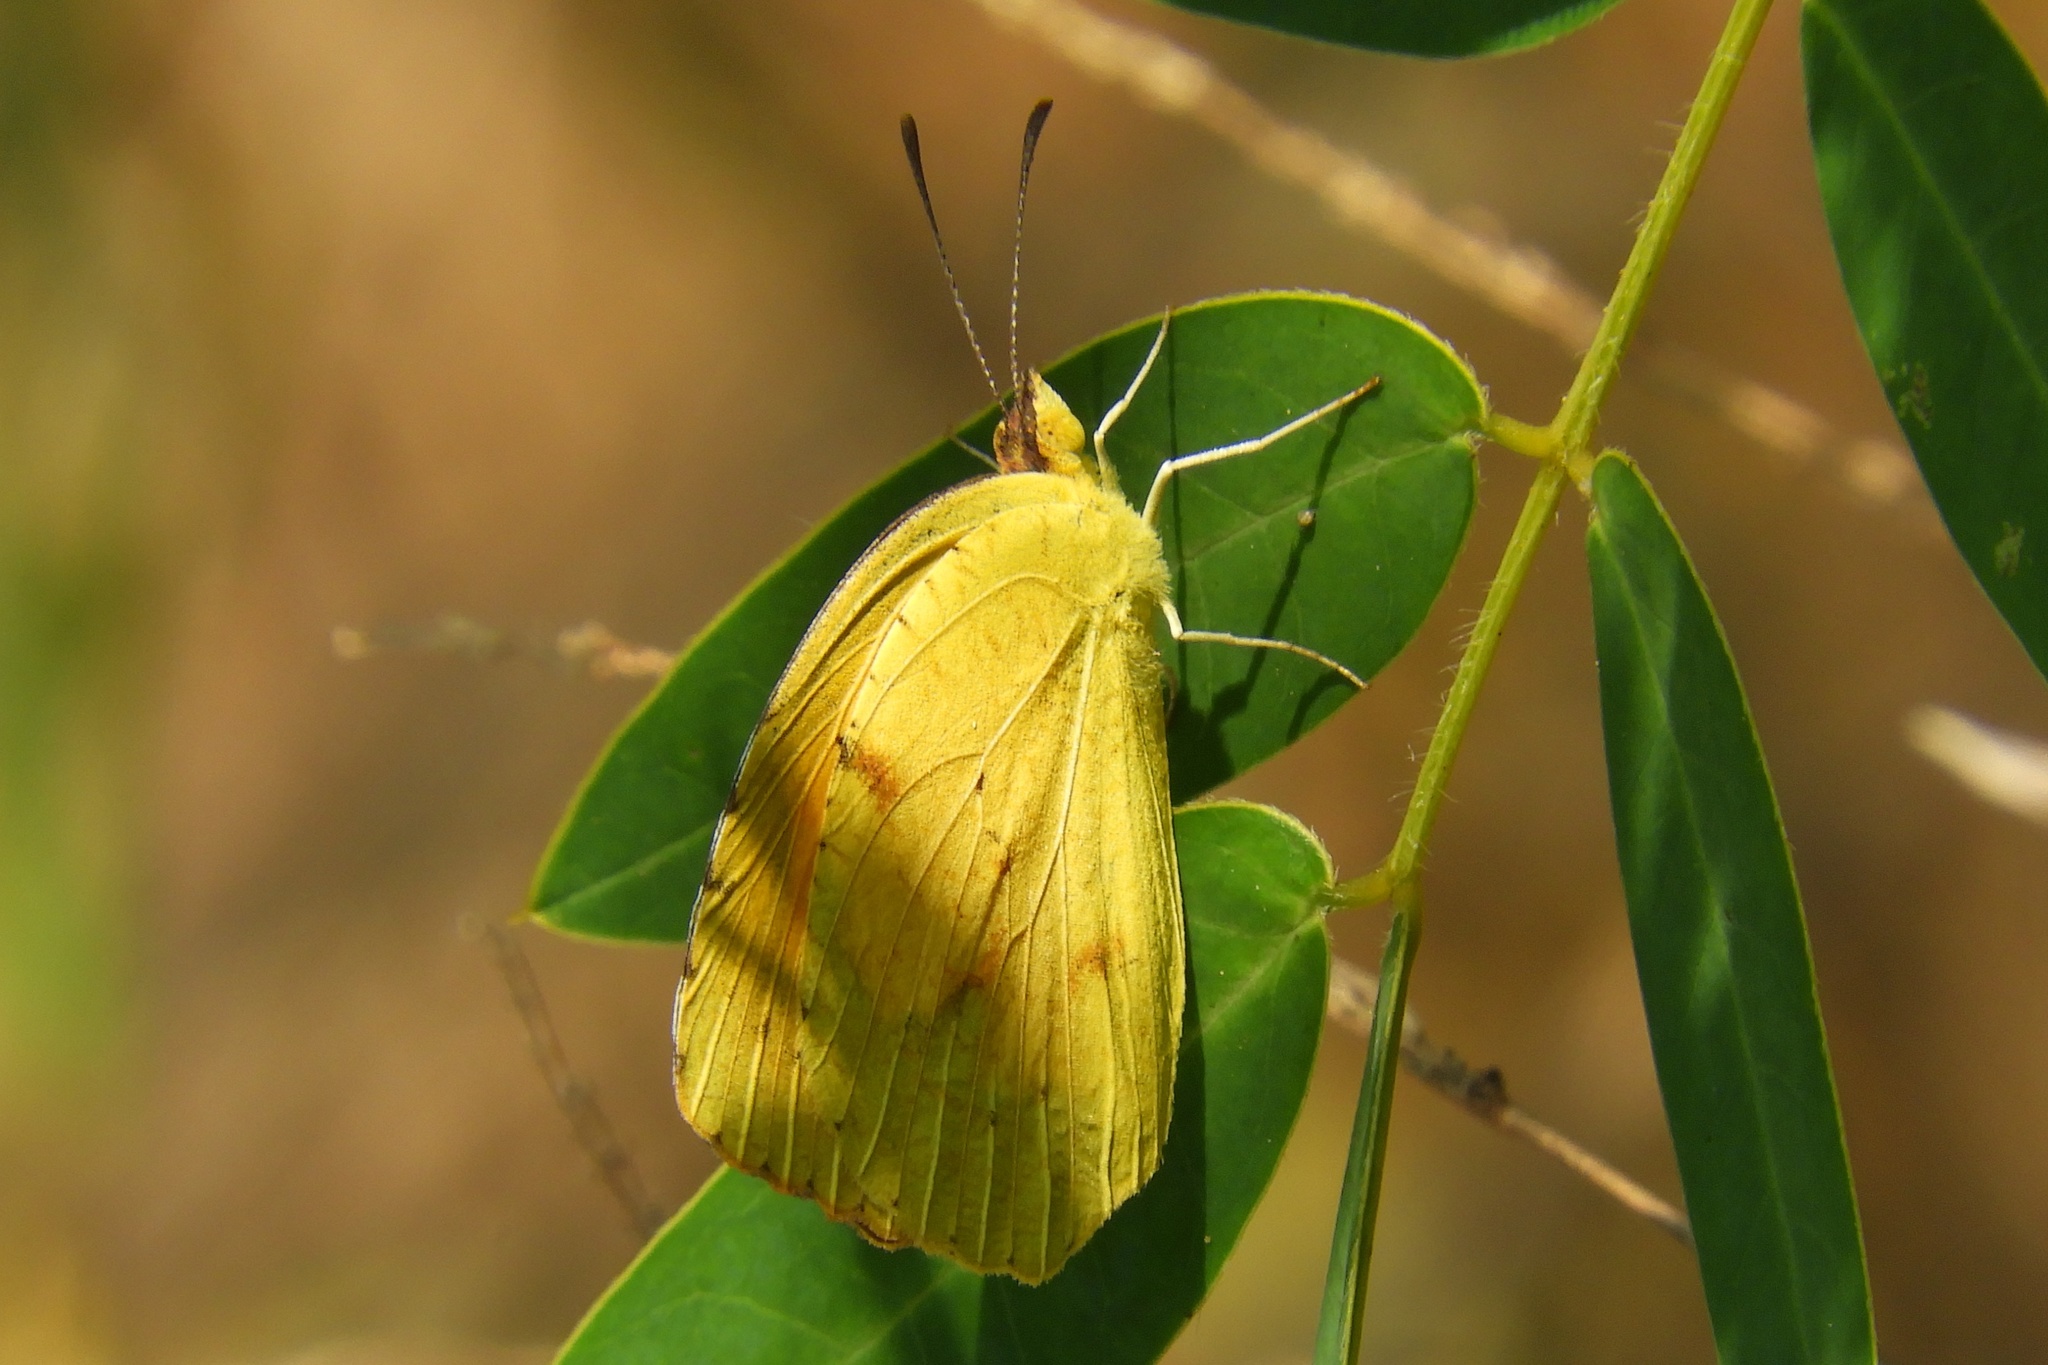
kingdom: Animalia
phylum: Arthropoda
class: Insecta
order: Lepidoptera
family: Pieridae
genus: Abaeis
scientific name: Abaeis nicippe
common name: Sleepy orange
